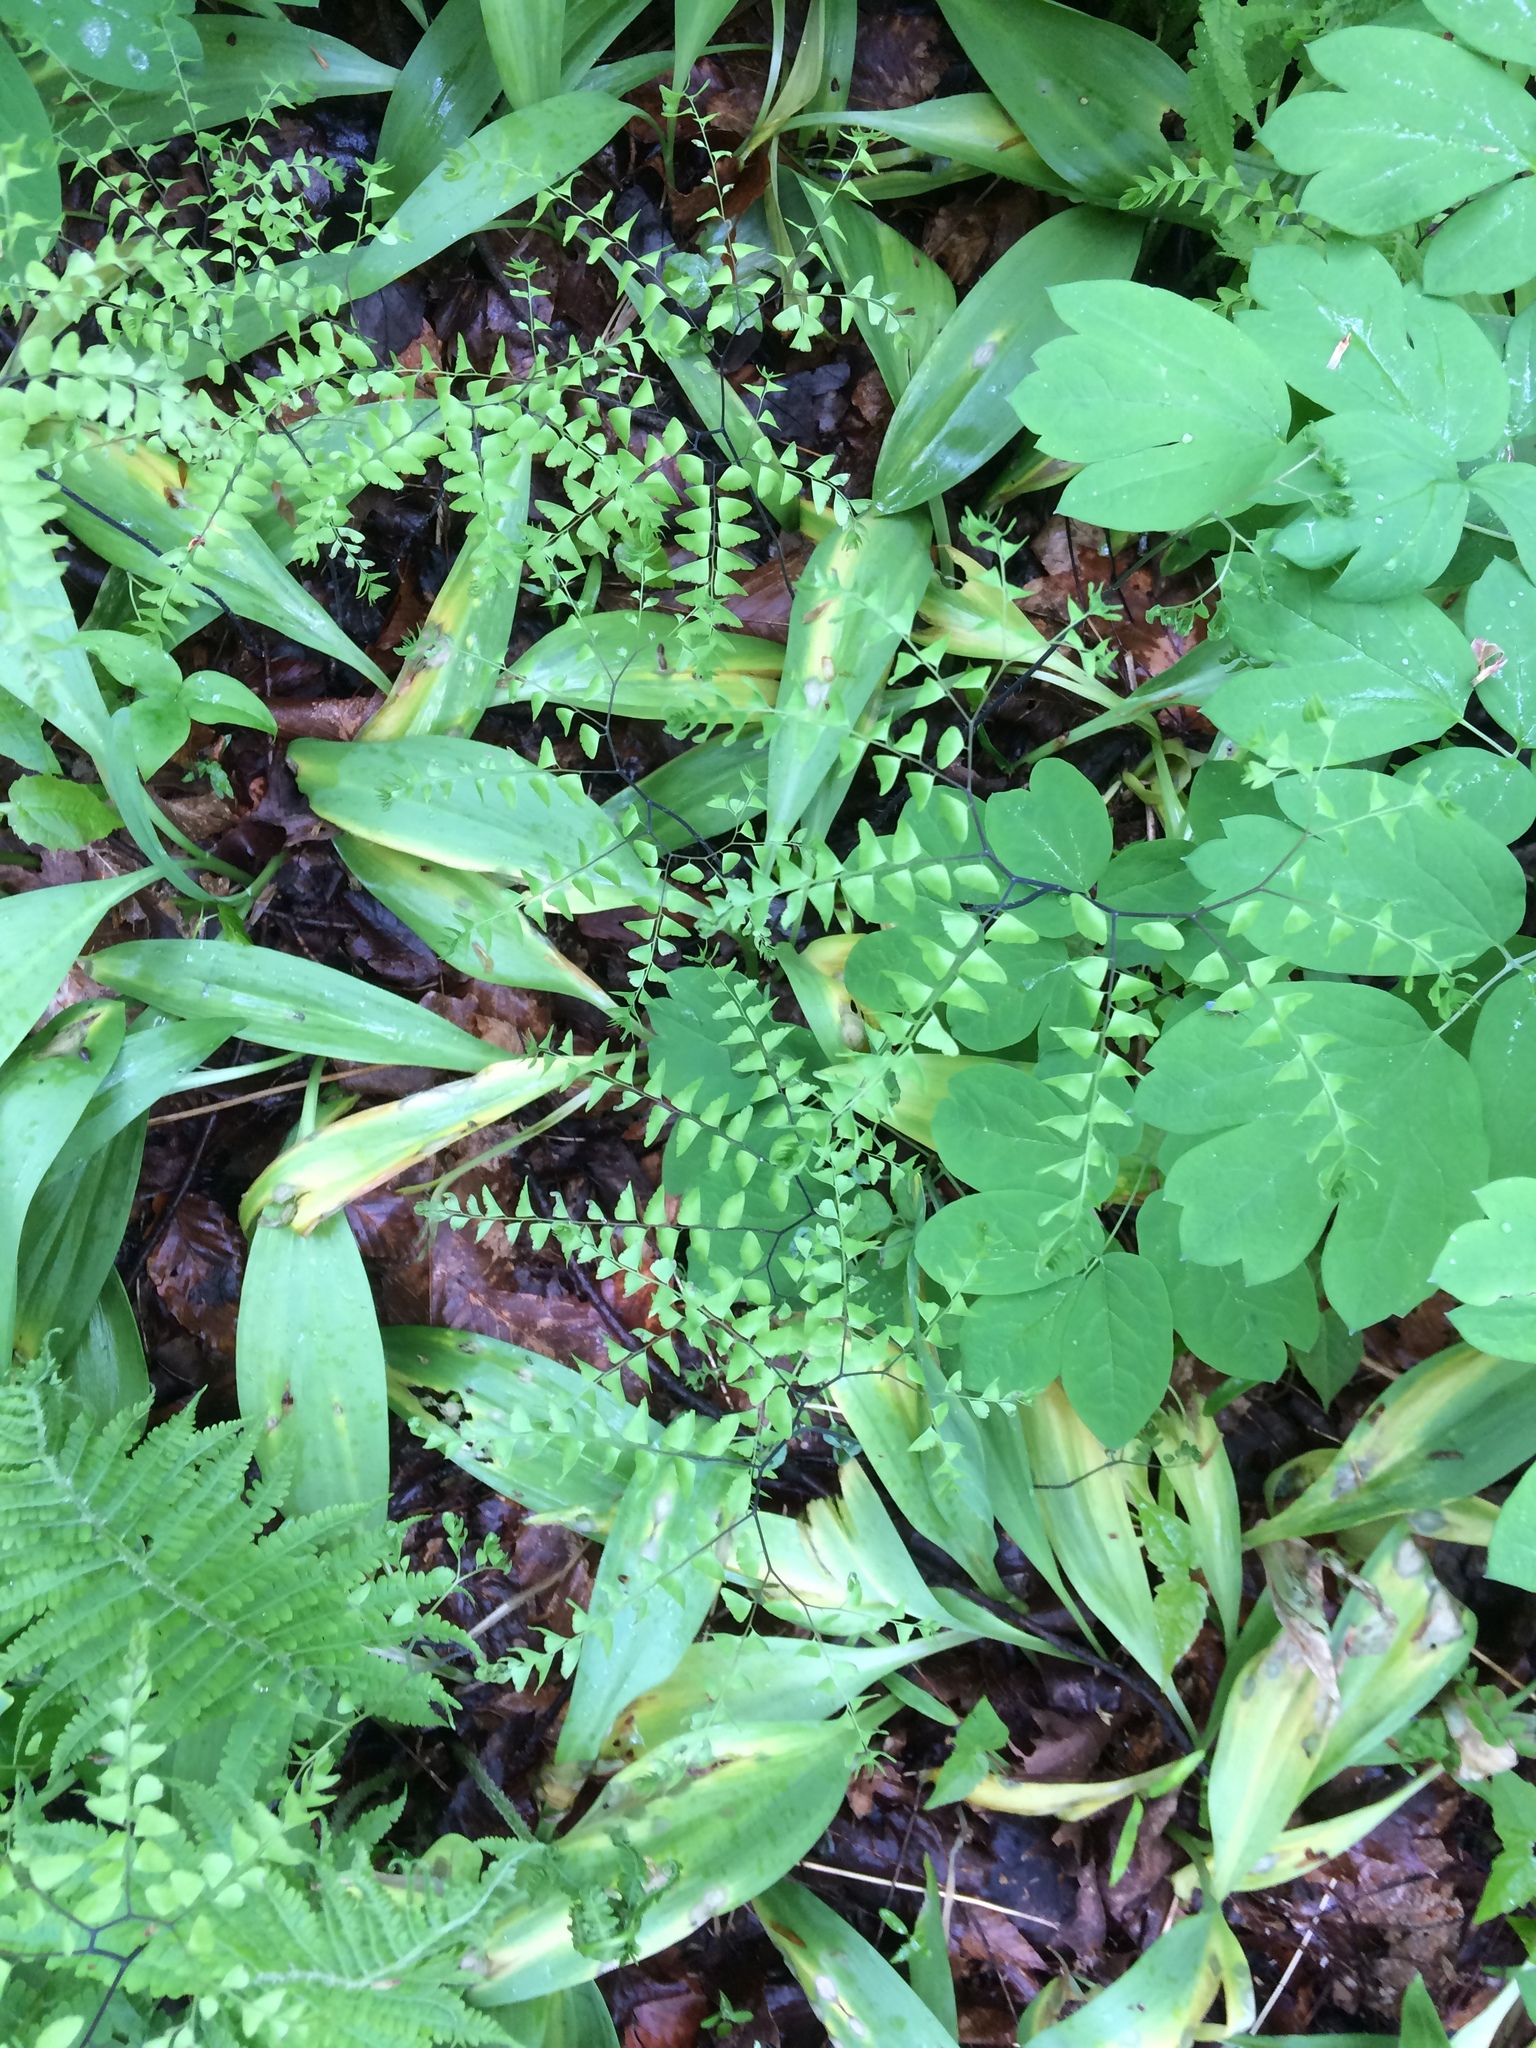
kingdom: Plantae
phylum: Tracheophyta
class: Polypodiopsida
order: Polypodiales
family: Pteridaceae
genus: Adiantum
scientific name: Adiantum pedatum
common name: Five-finger fern
